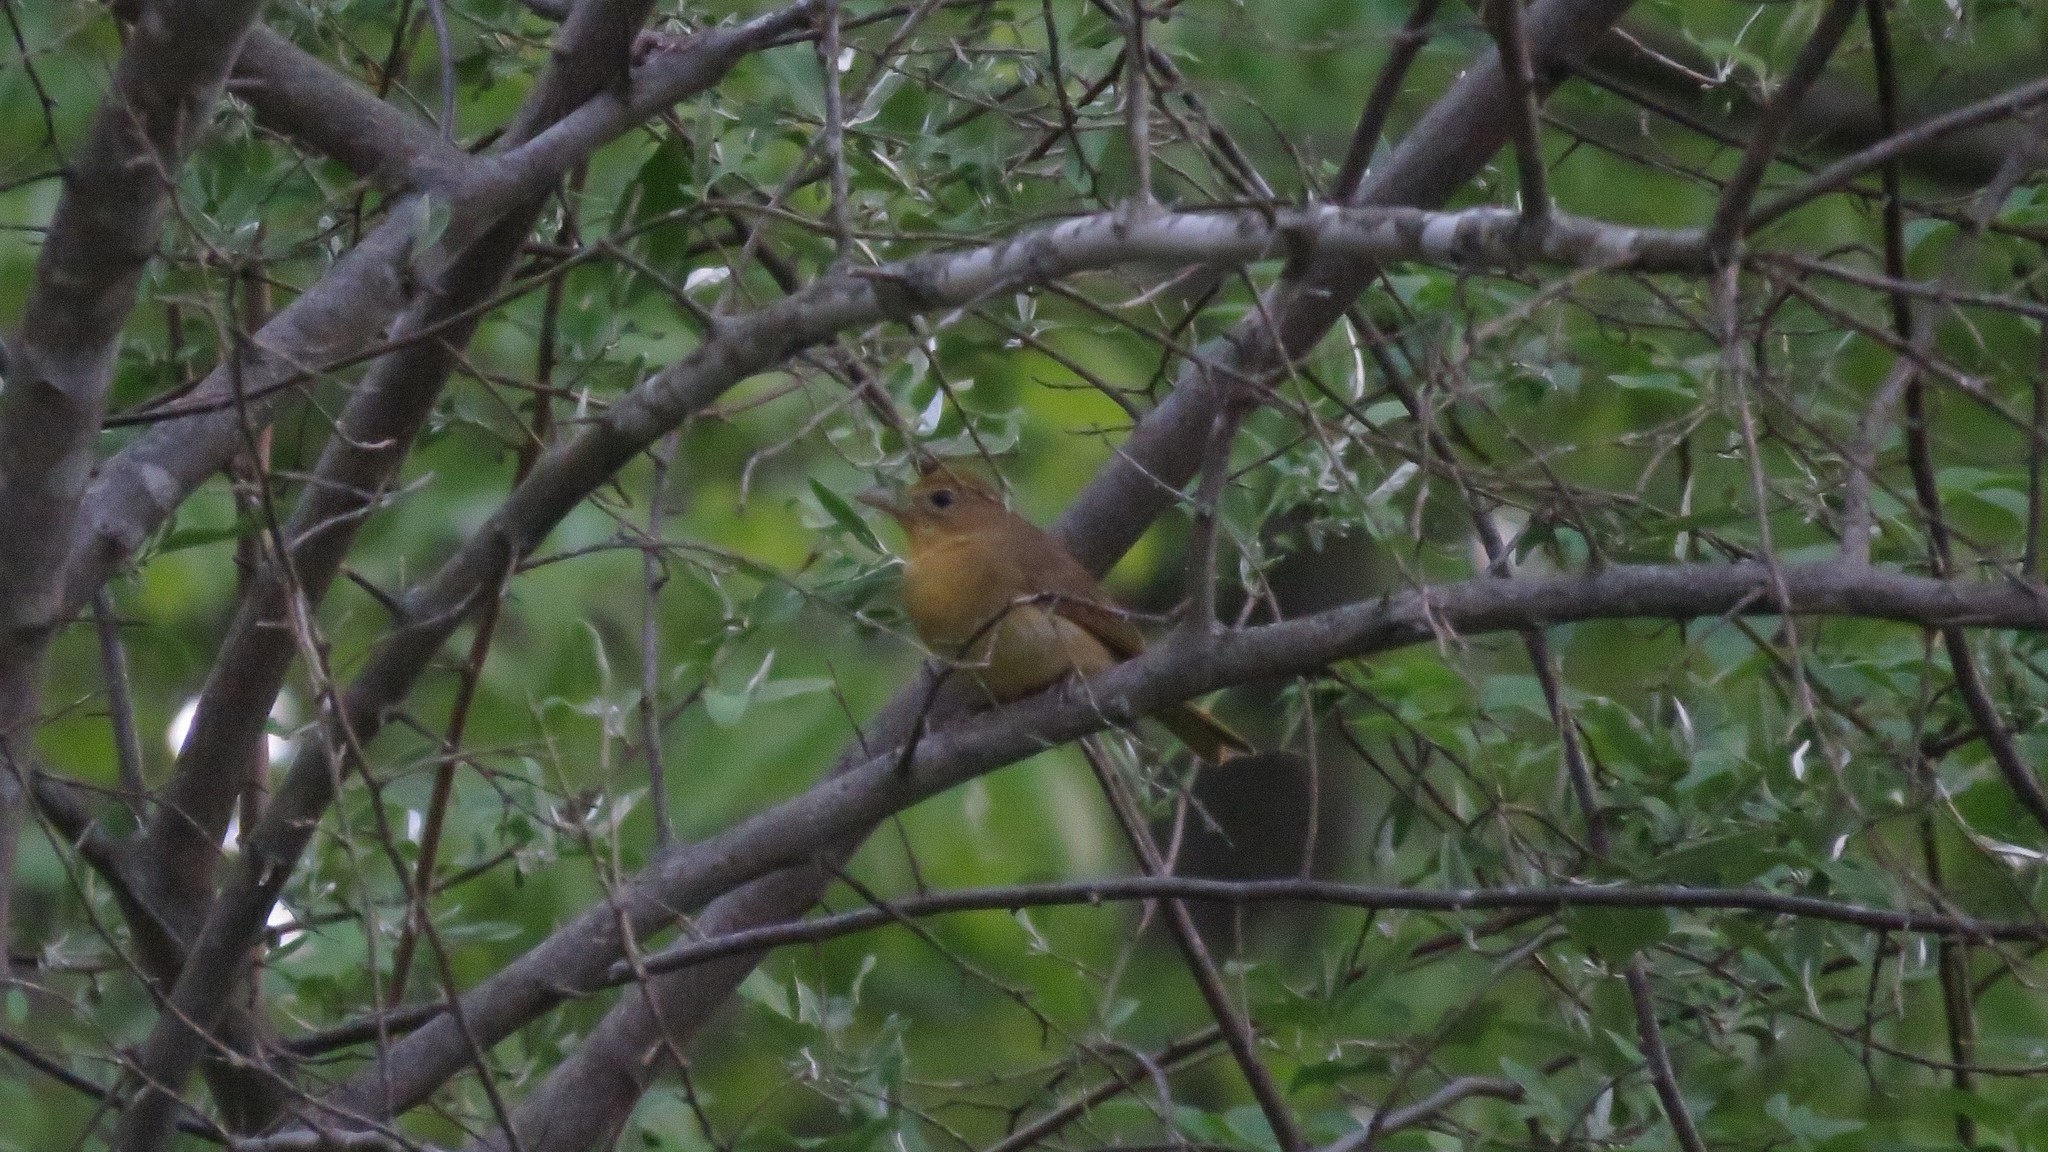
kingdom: Animalia
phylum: Chordata
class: Aves
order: Passeriformes
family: Cardinalidae
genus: Piranga
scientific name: Piranga rubra
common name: Summer tanager
